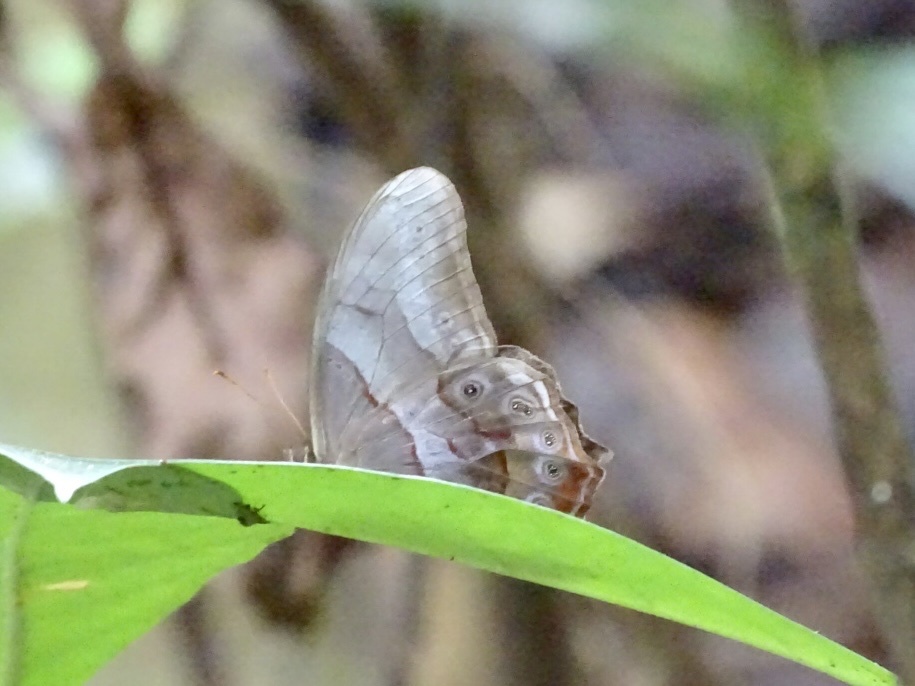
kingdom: Animalia
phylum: Arthropoda
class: Insecta
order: Lepidoptera
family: Nymphalidae
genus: Lethe
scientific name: Lethe chandica
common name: Angled red forester
